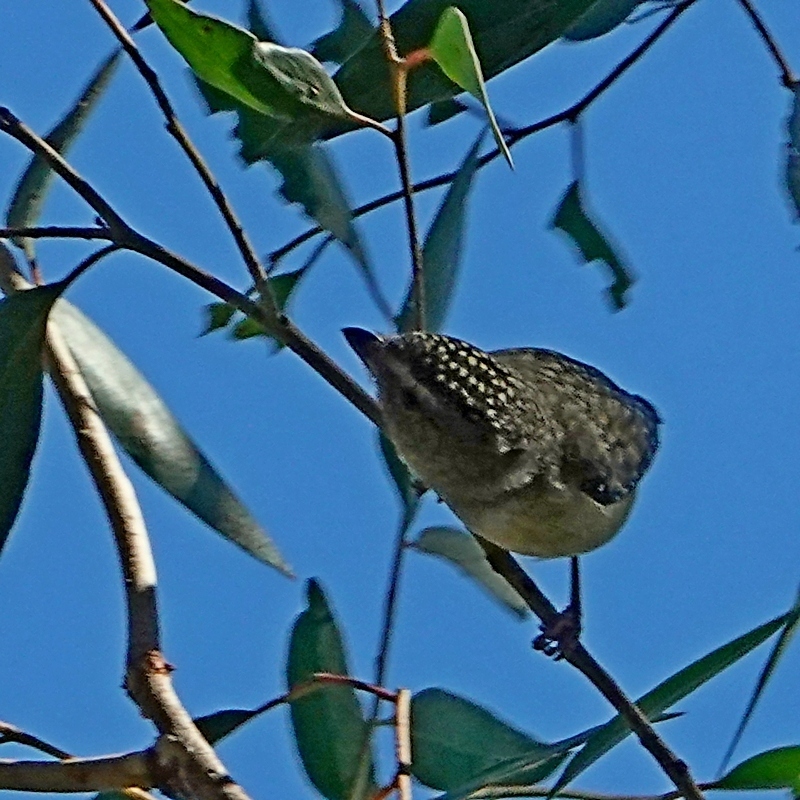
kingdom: Animalia
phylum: Chordata
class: Aves
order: Passeriformes
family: Pardalotidae
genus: Pardalotus
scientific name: Pardalotus punctatus
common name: Spotted pardalote
